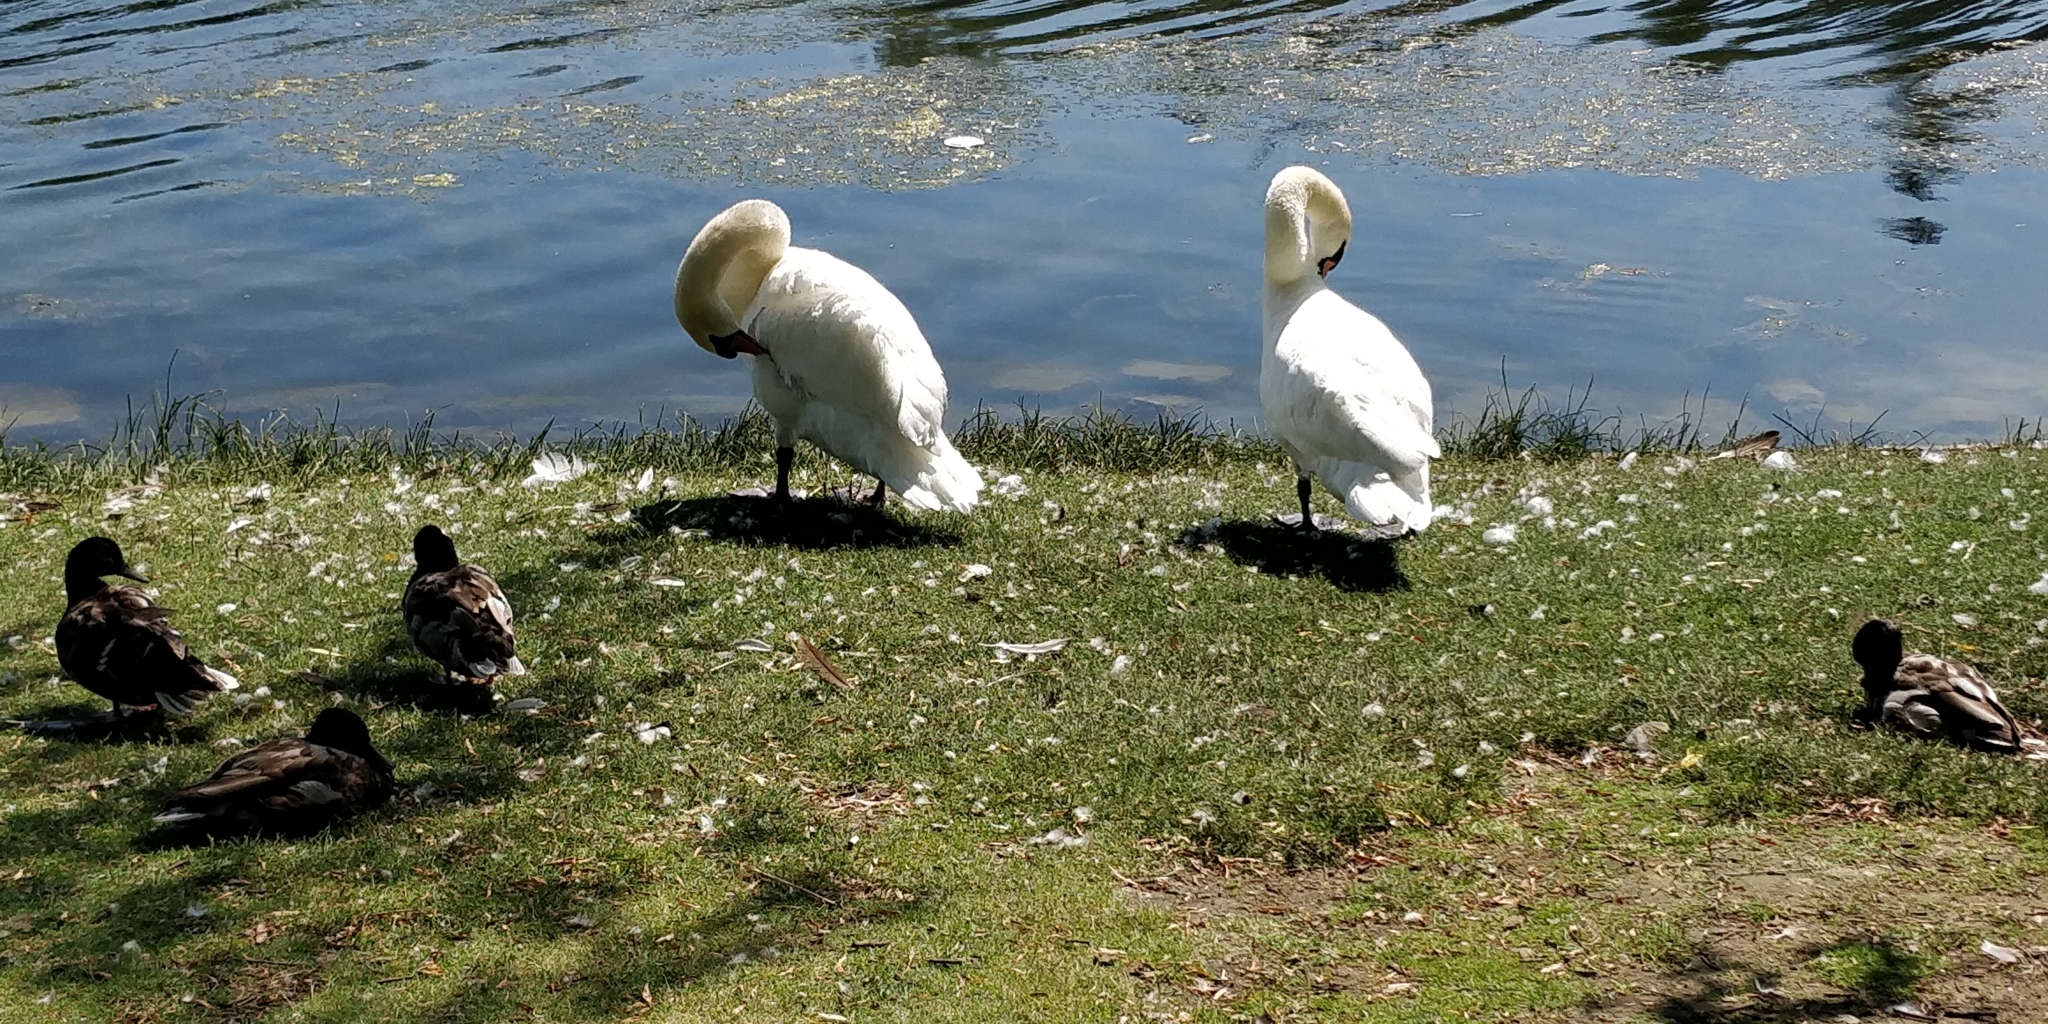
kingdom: Animalia
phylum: Chordata
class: Aves
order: Anseriformes
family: Anatidae
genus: Cygnus
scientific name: Cygnus olor
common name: Mute swan
